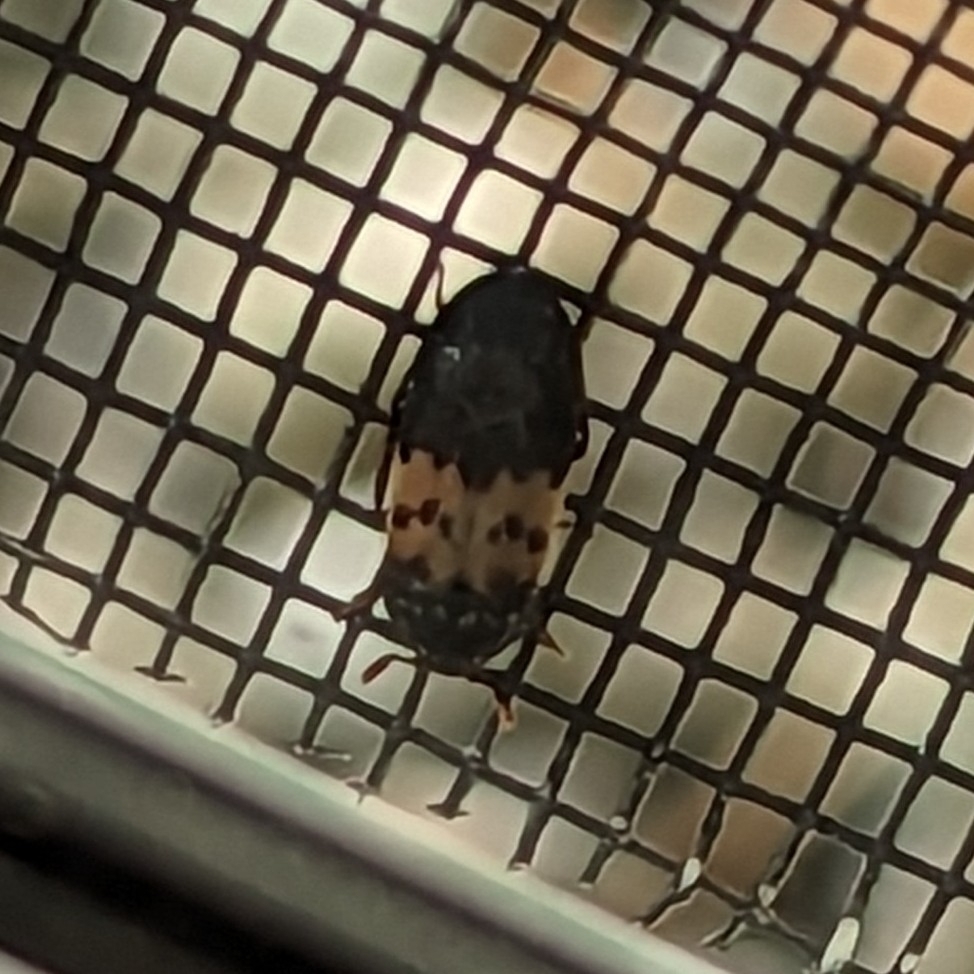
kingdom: Animalia
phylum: Arthropoda
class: Insecta
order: Coleoptera
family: Dermestidae
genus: Dermestes
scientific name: Dermestes lardarius
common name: Larder beetle
